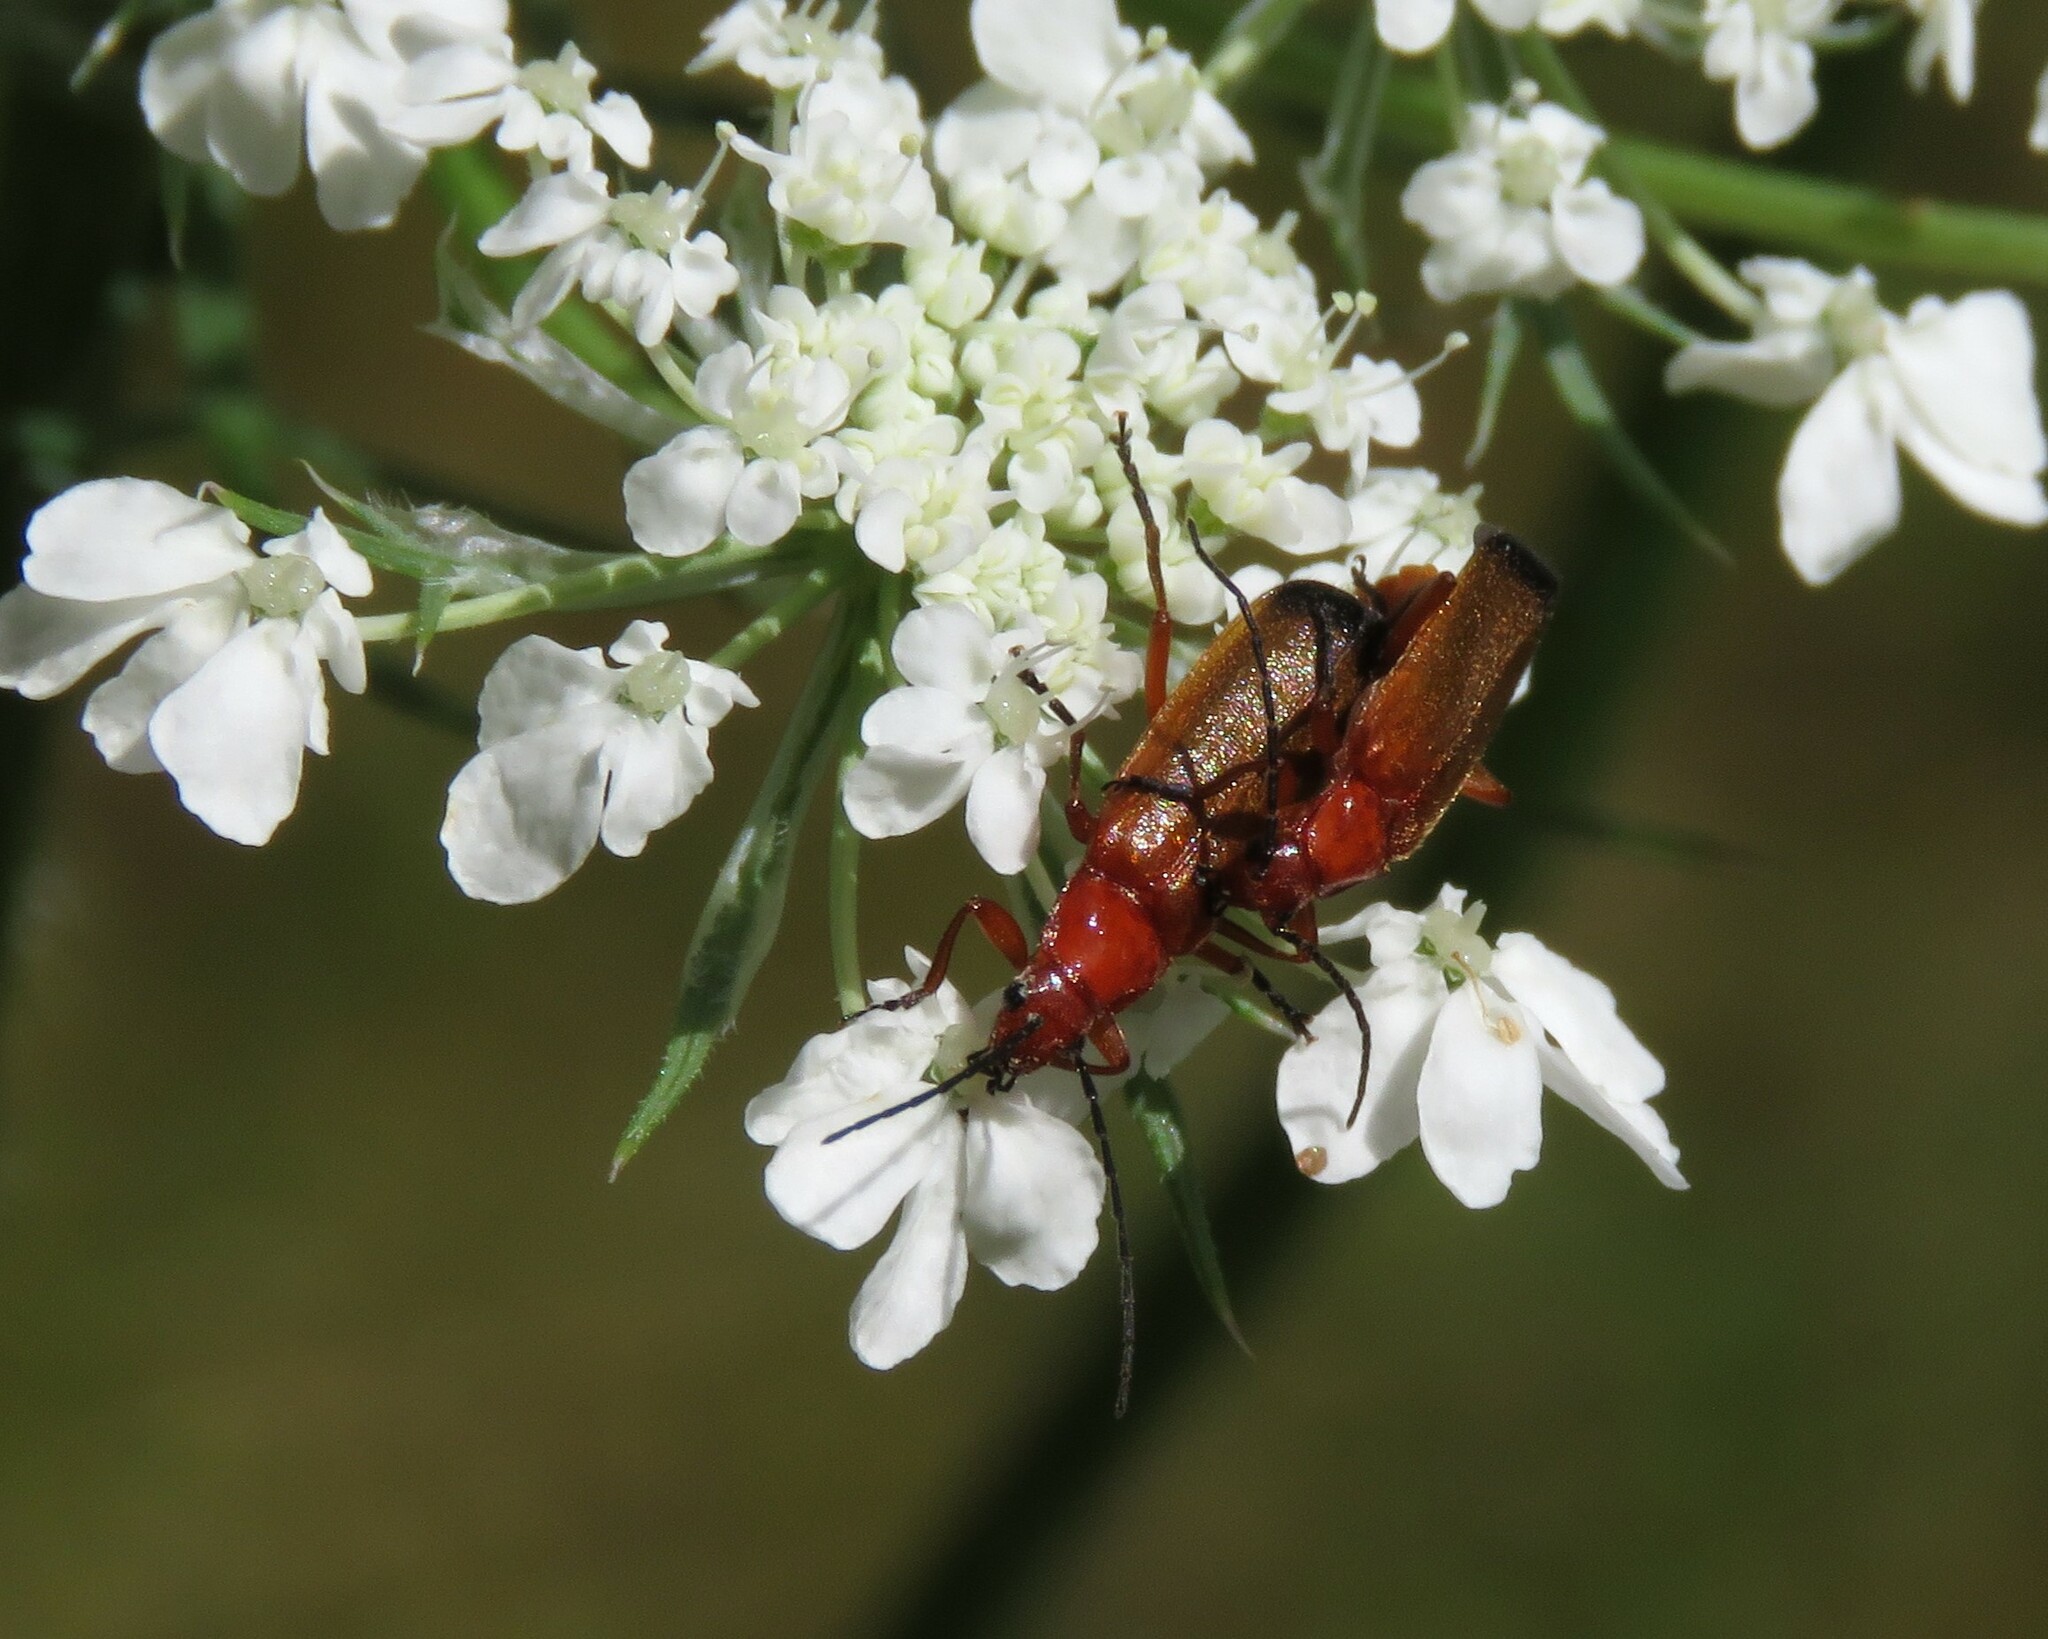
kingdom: Animalia
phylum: Arthropoda
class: Insecta
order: Coleoptera
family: Cantharidae
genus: Rhagonycha
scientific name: Rhagonycha fulva
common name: Common red soldier beetle
